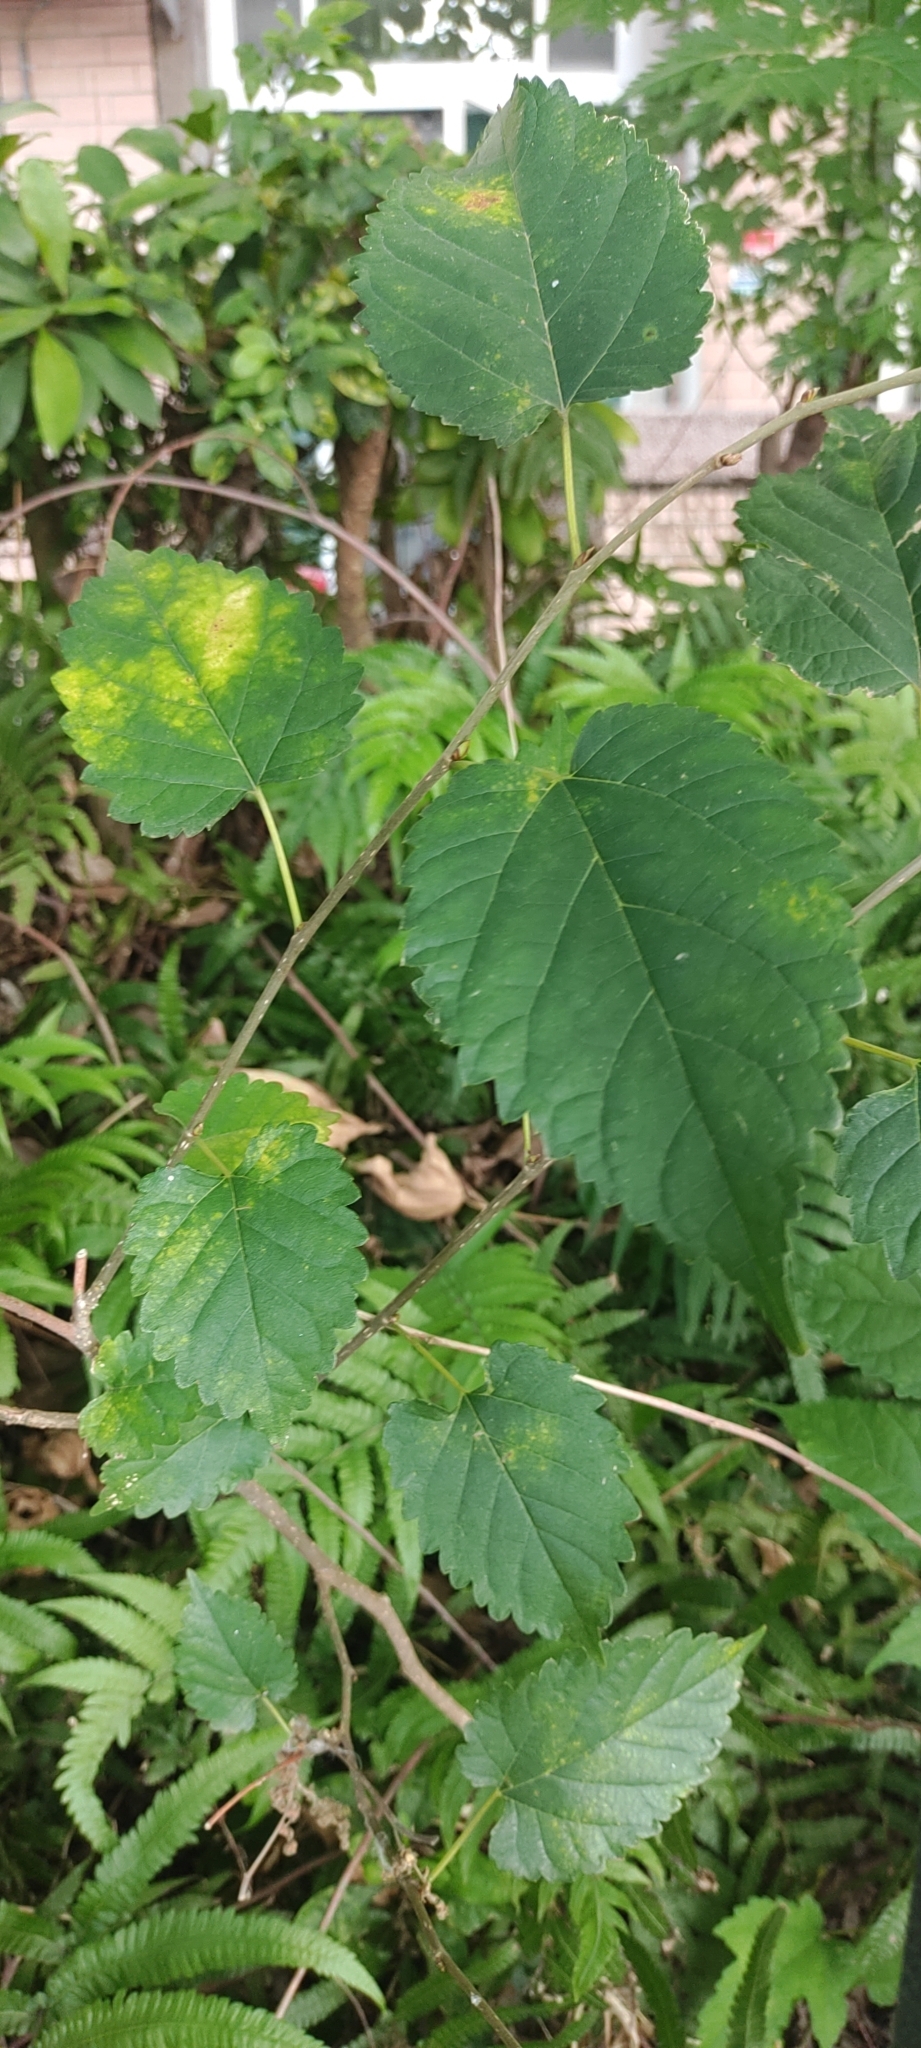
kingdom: Plantae
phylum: Tracheophyta
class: Magnoliopsida
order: Rosales
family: Moraceae
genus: Morus
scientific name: Morus indica
